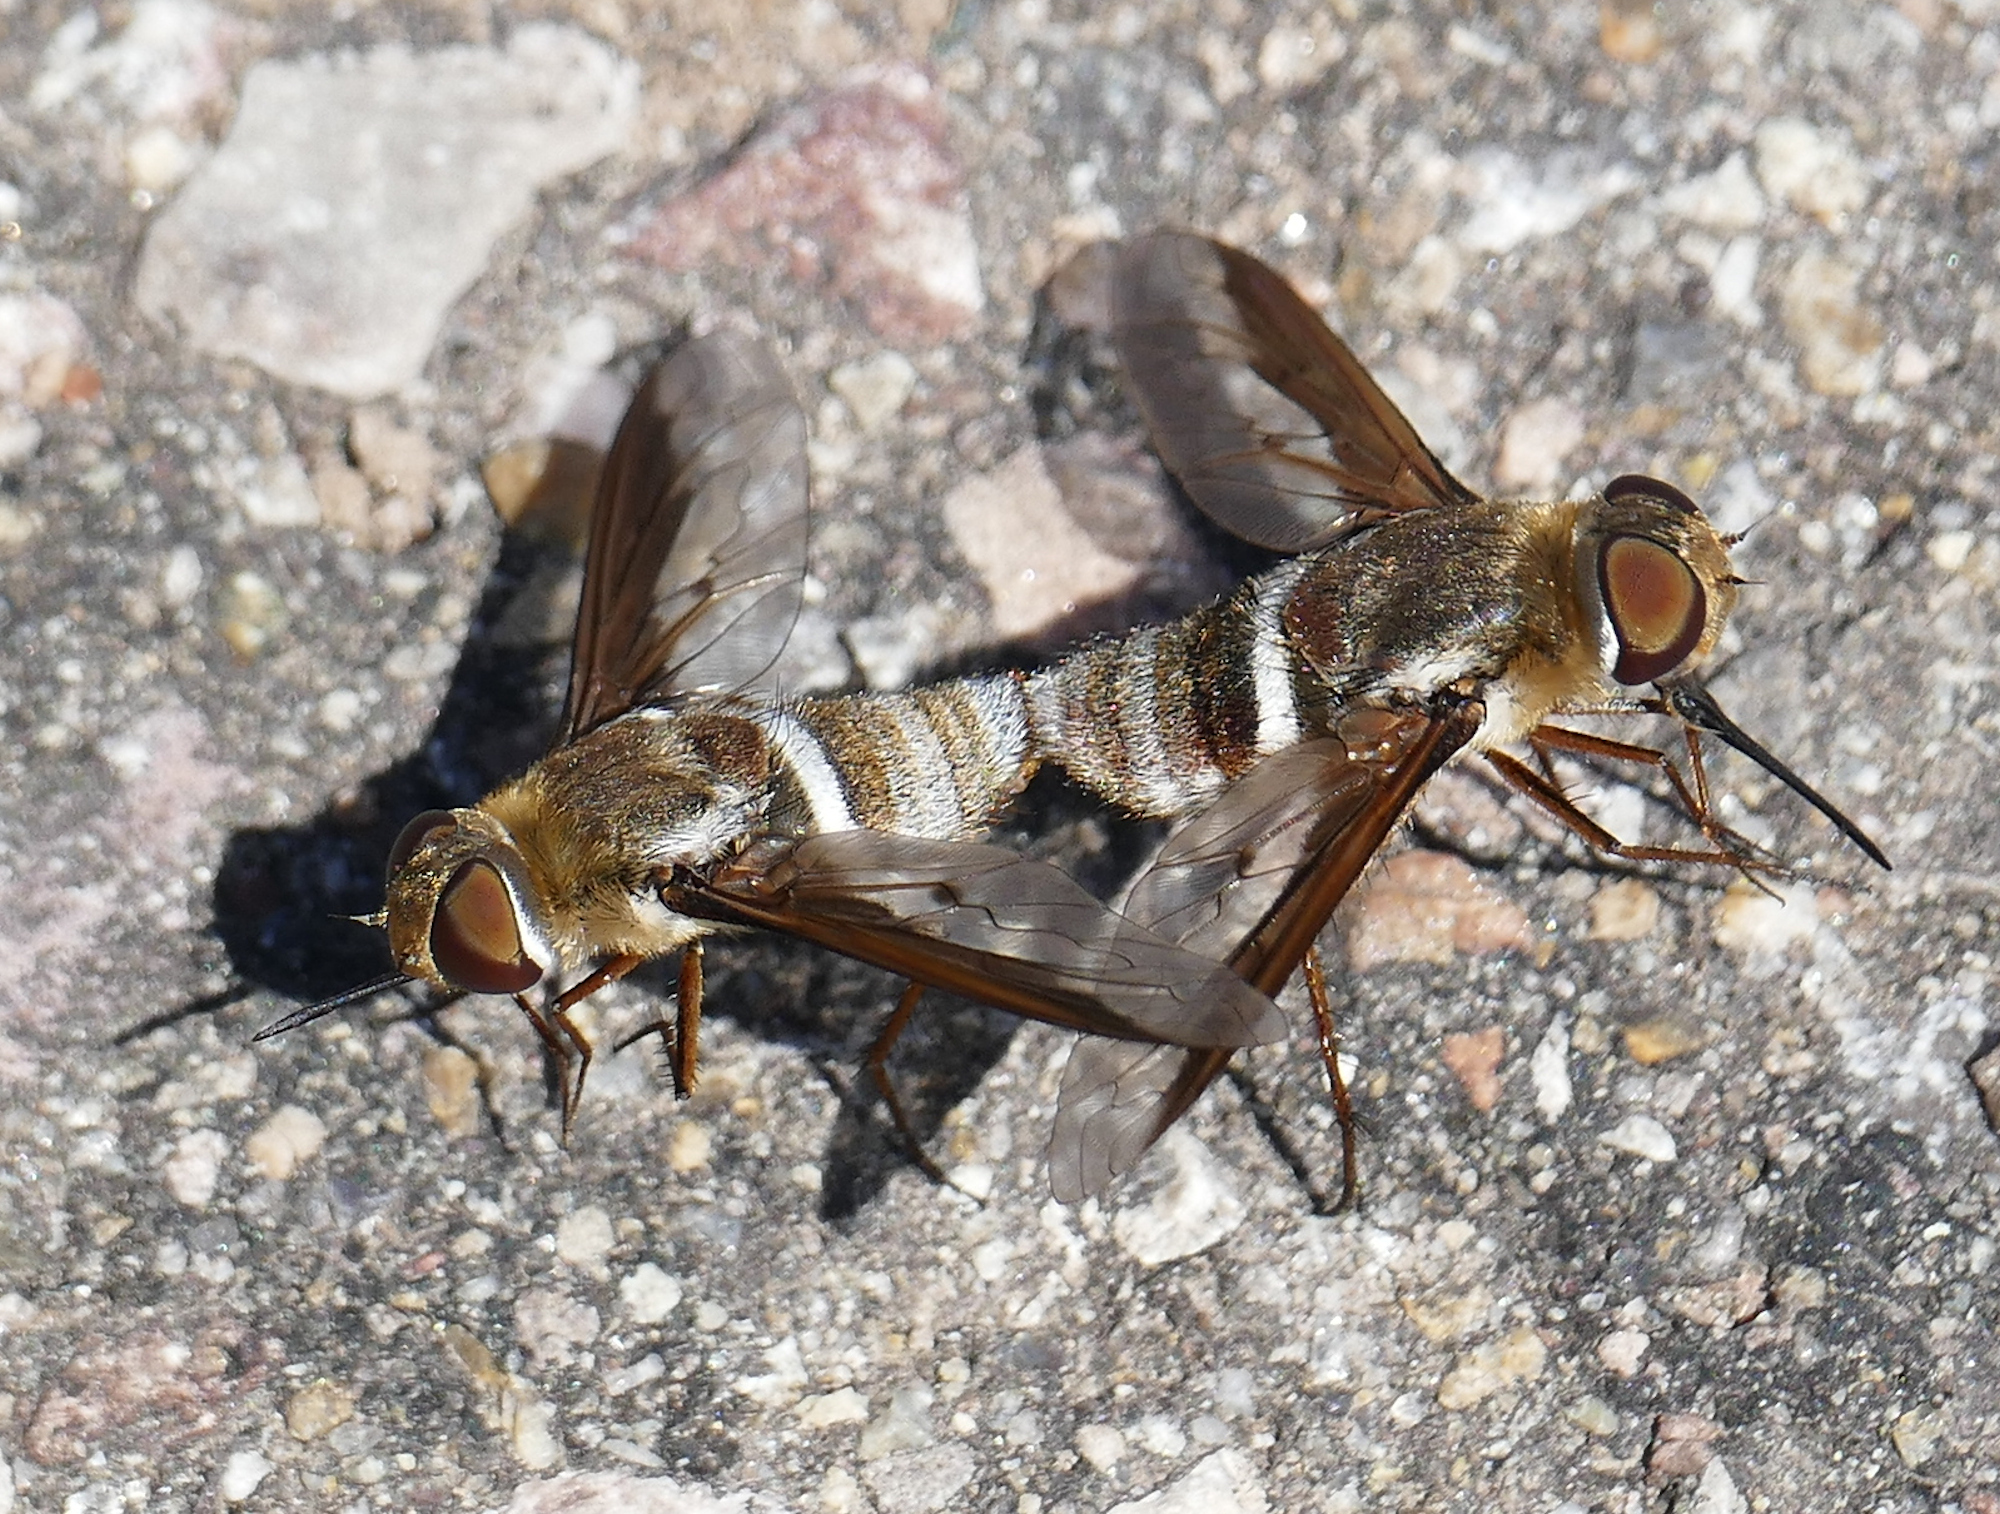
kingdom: Animalia
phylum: Arthropoda
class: Insecta
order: Diptera
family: Bombyliidae
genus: Exoprosopa
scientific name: Exoprosopa clarki
